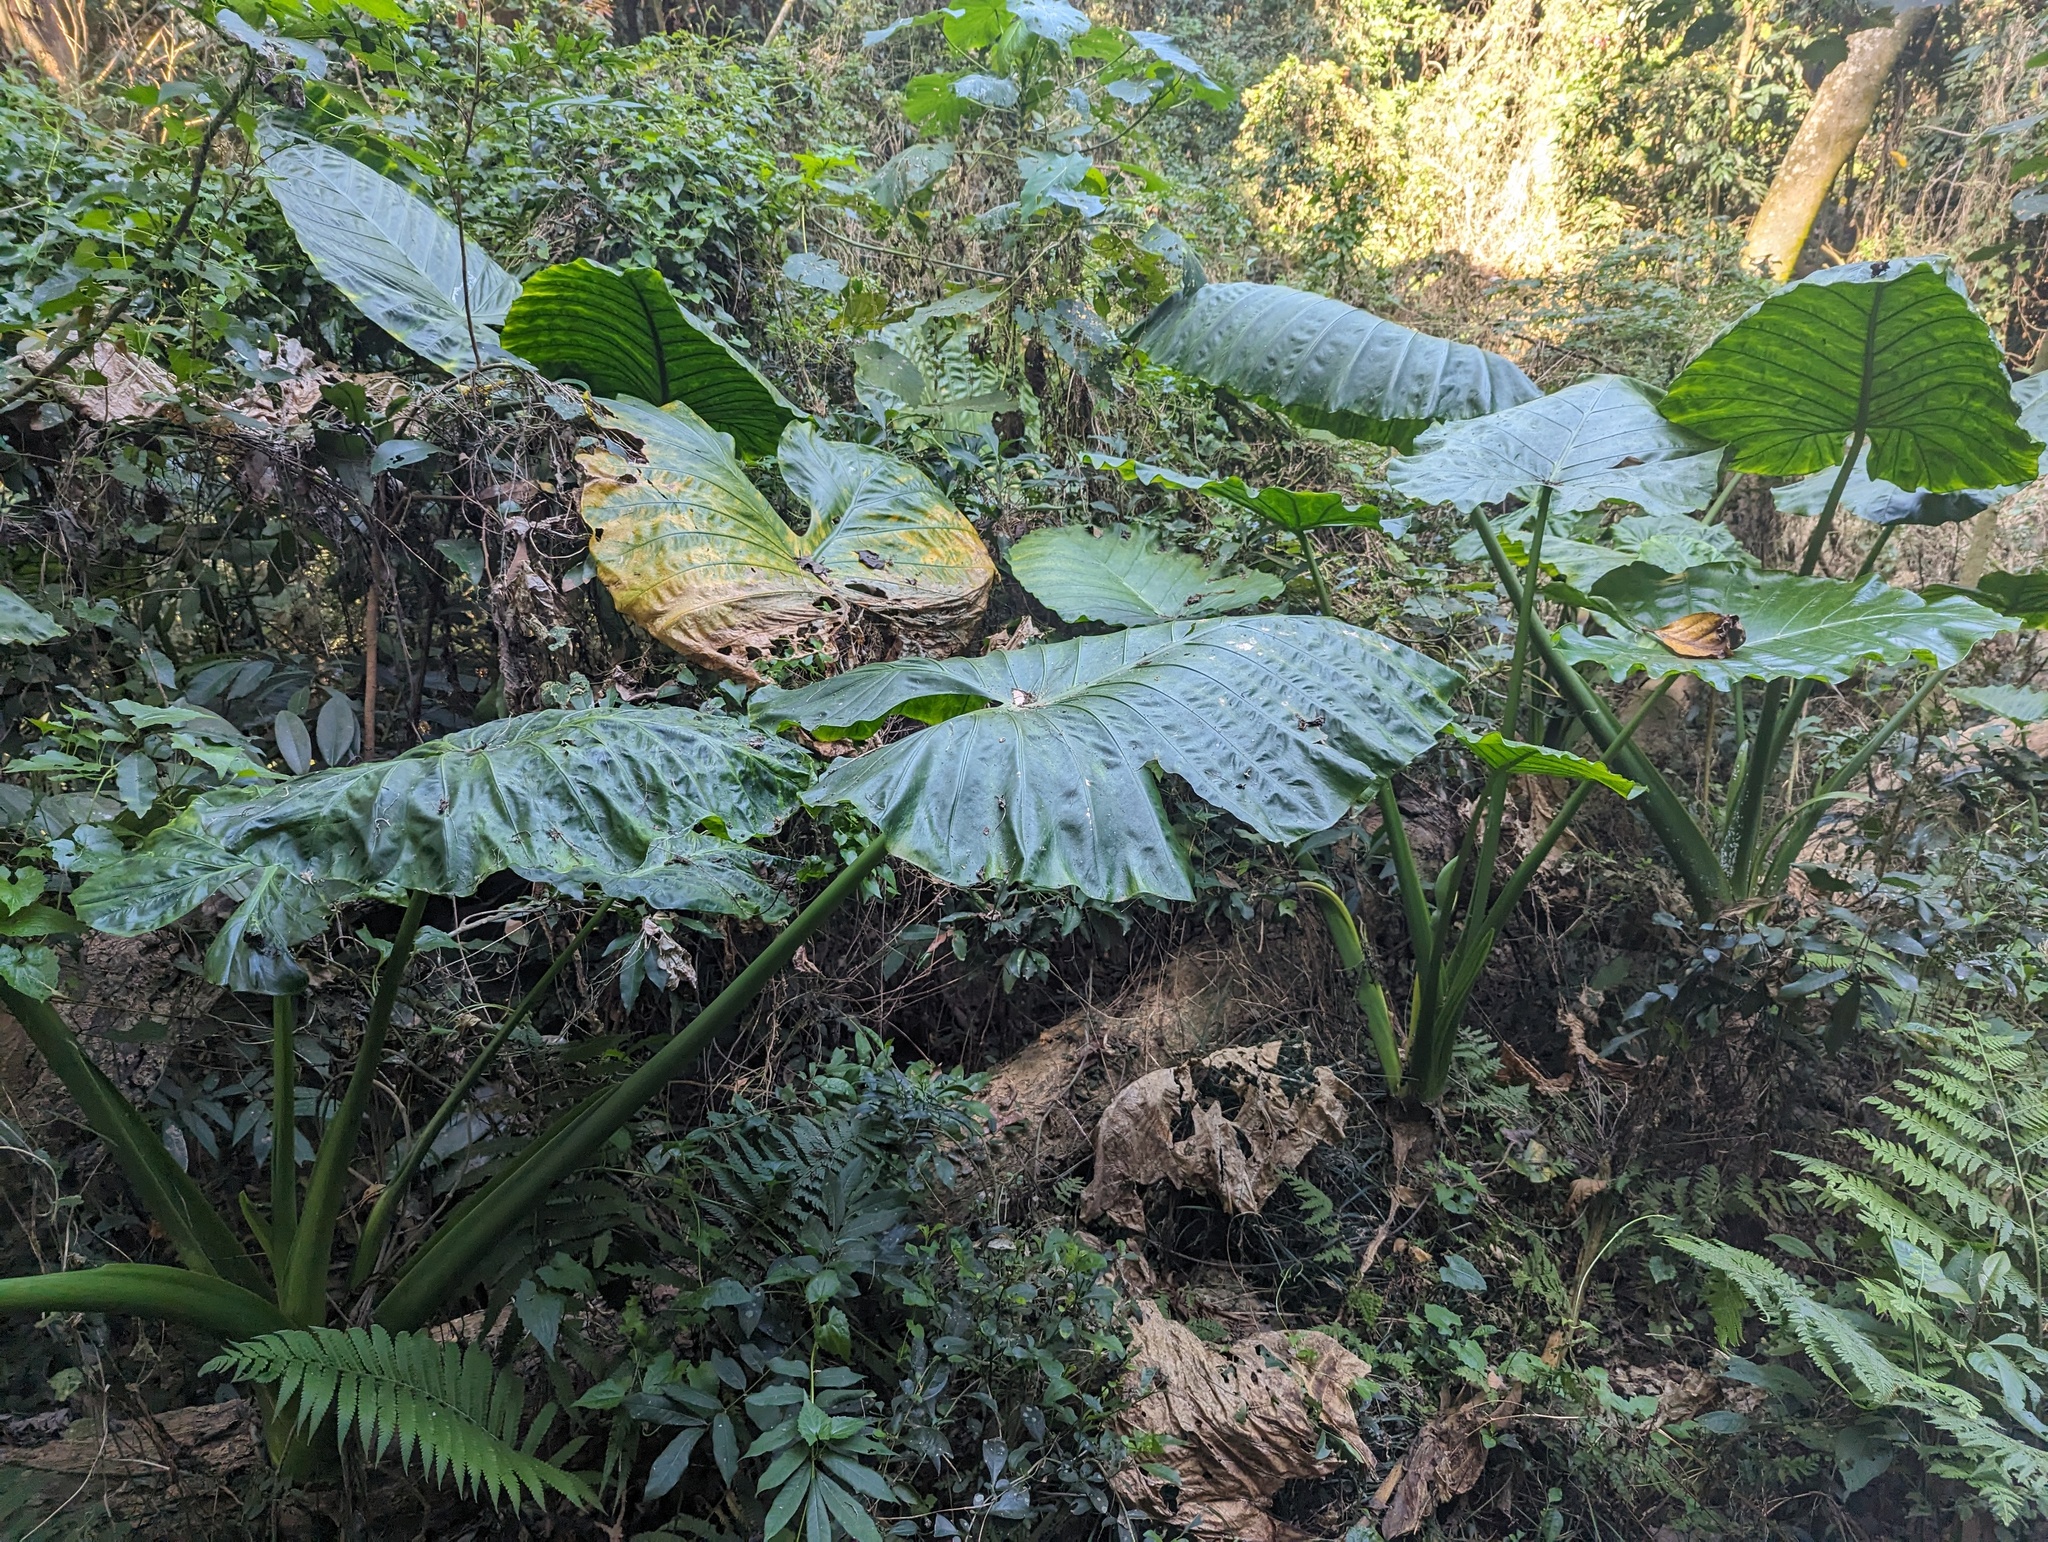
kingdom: Plantae
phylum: Tracheophyta
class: Liliopsida
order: Alismatales
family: Araceae
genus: Alocasia
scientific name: Alocasia odora
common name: Asian taro
